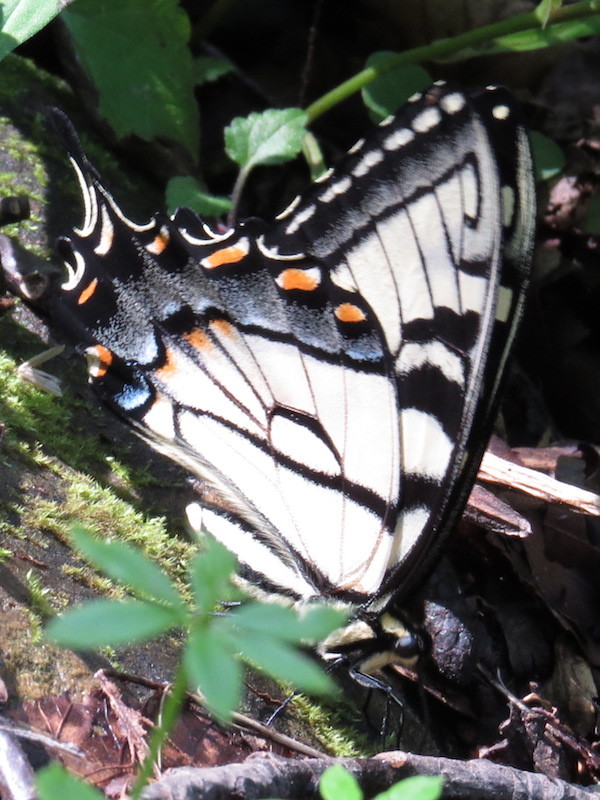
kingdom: Animalia
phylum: Arthropoda
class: Insecta
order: Lepidoptera
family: Papilionidae
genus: Papilio
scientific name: Papilio glaucus
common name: Tiger swallowtail
